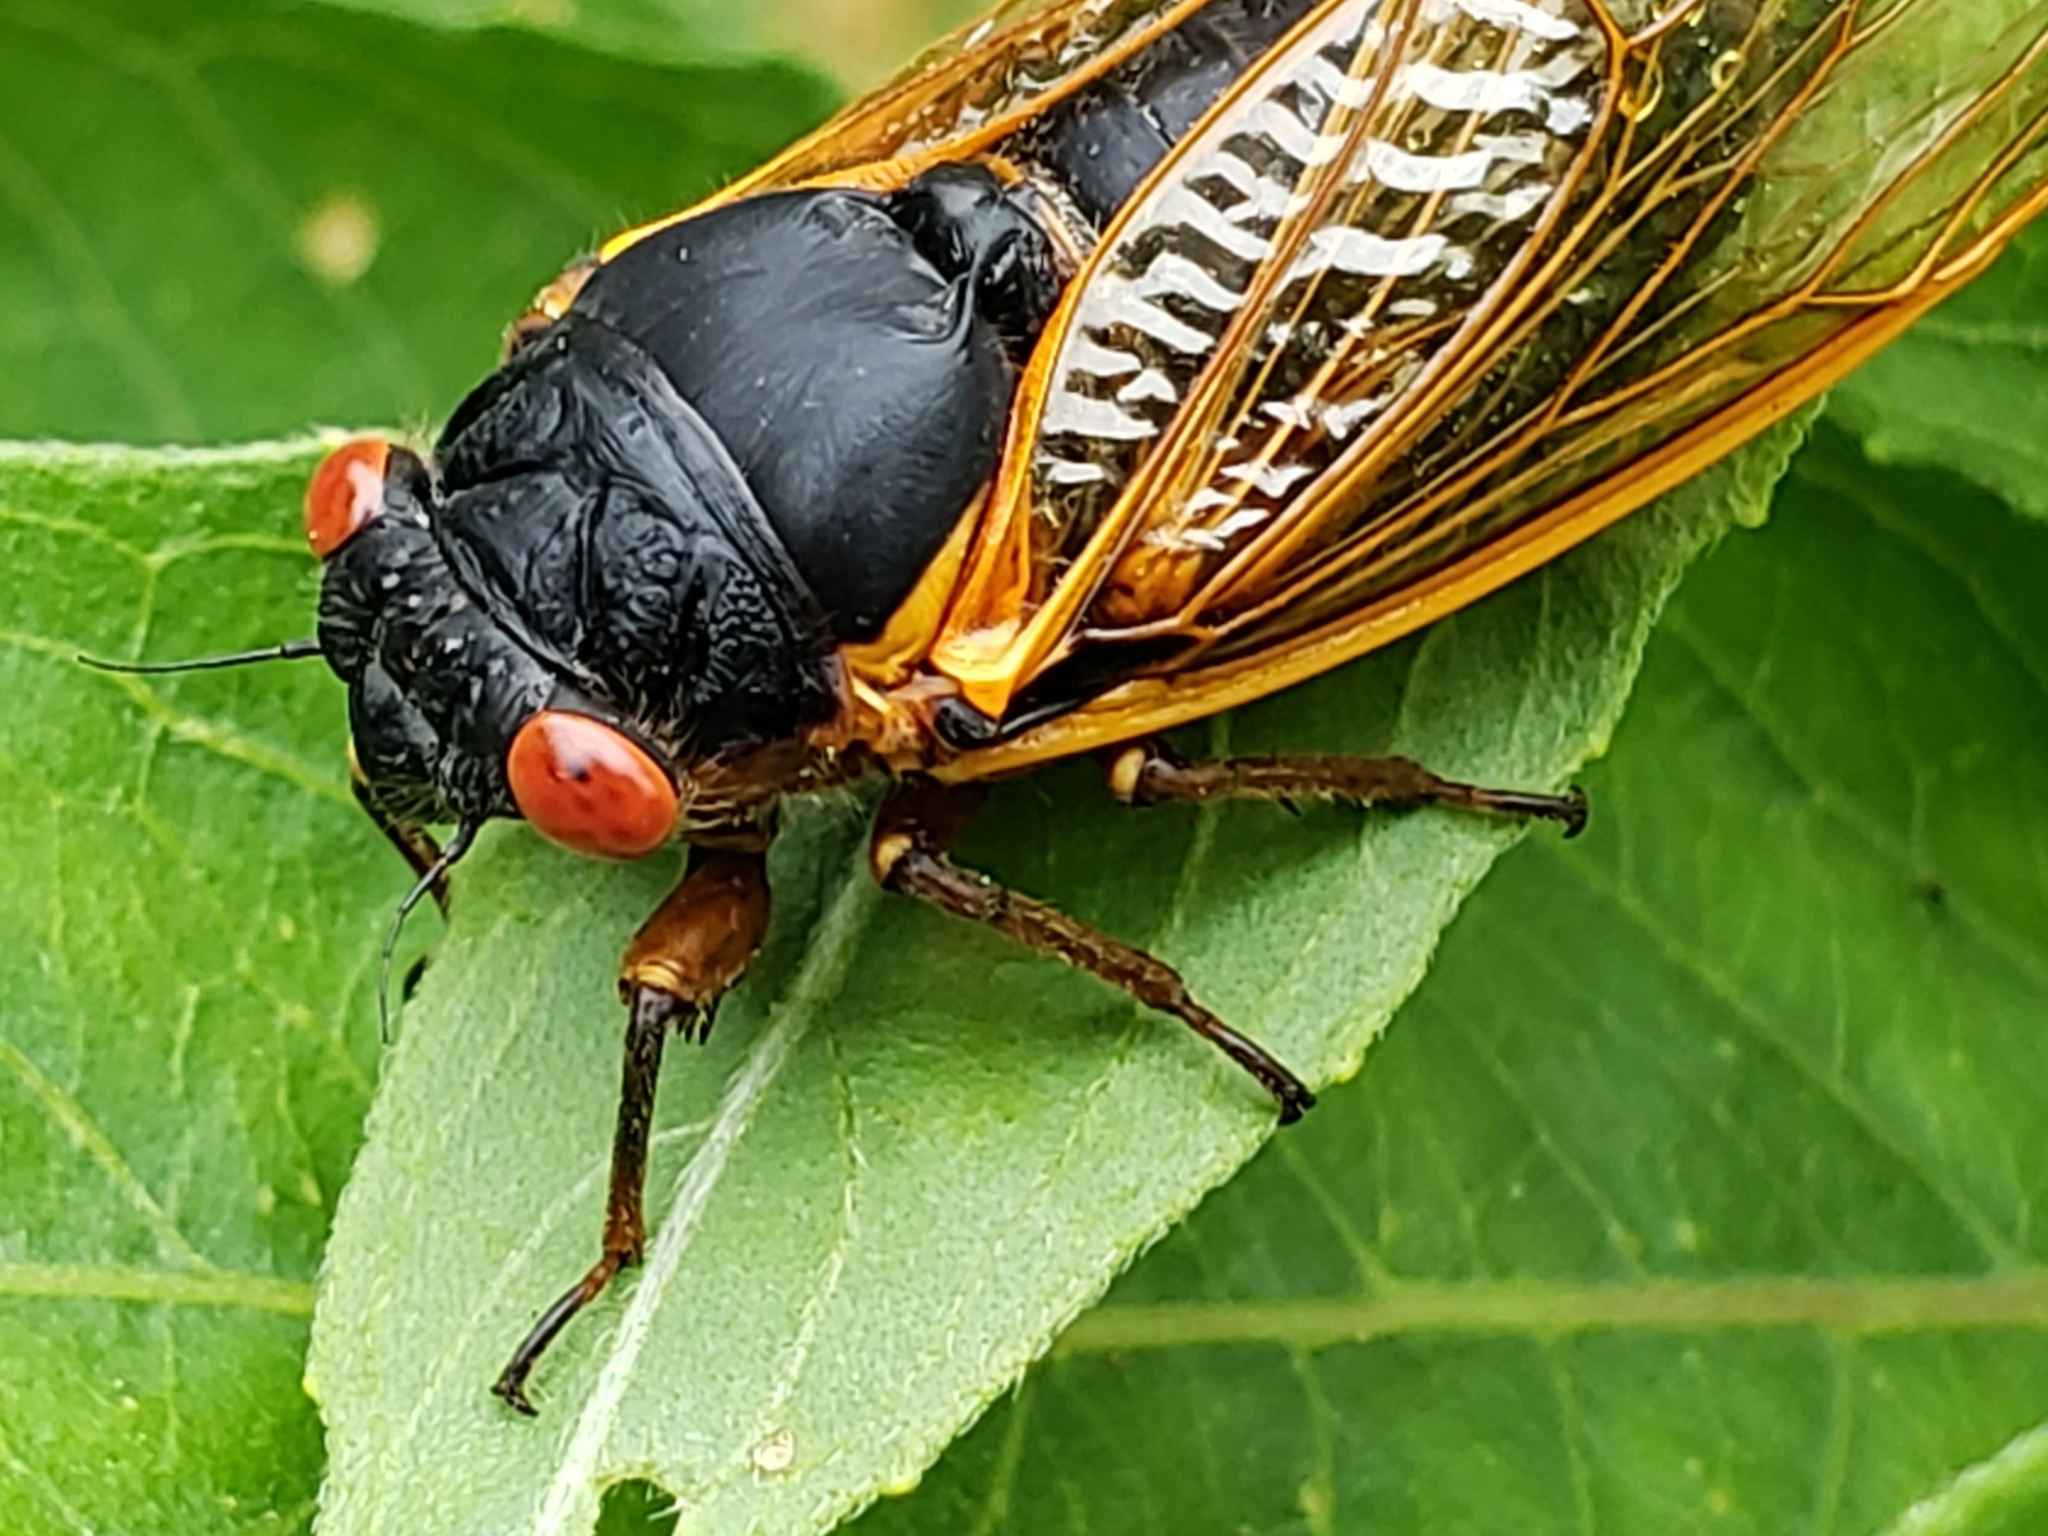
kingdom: Animalia
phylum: Arthropoda
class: Insecta
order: Hemiptera
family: Cicadidae
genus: Magicicada
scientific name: Magicicada septendecim
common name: Periodical cicada
